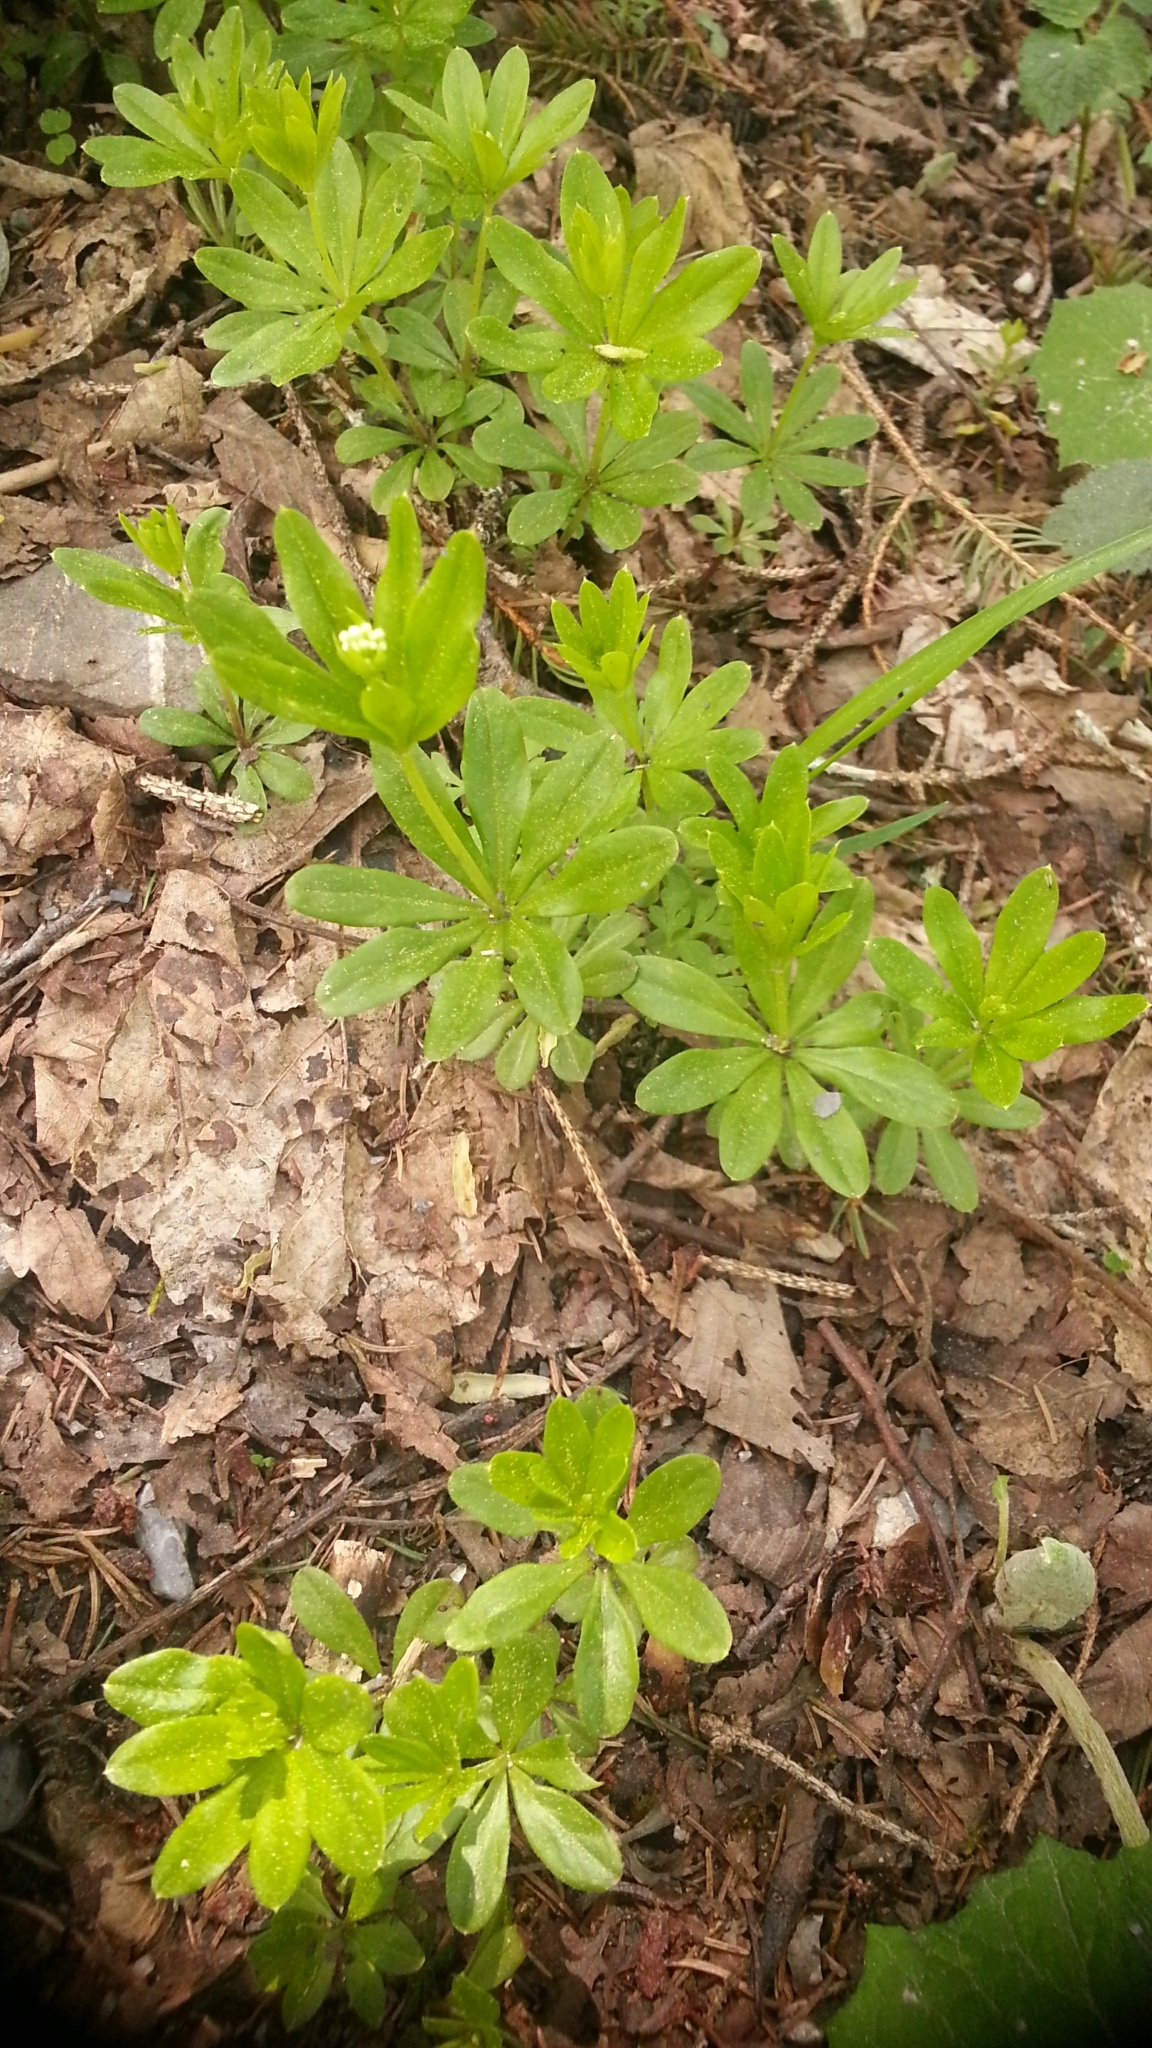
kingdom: Plantae
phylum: Tracheophyta
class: Magnoliopsida
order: Gentianales
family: Rubiaceae
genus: Galium
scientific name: Galium odoratum
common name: Sweet woodruff
